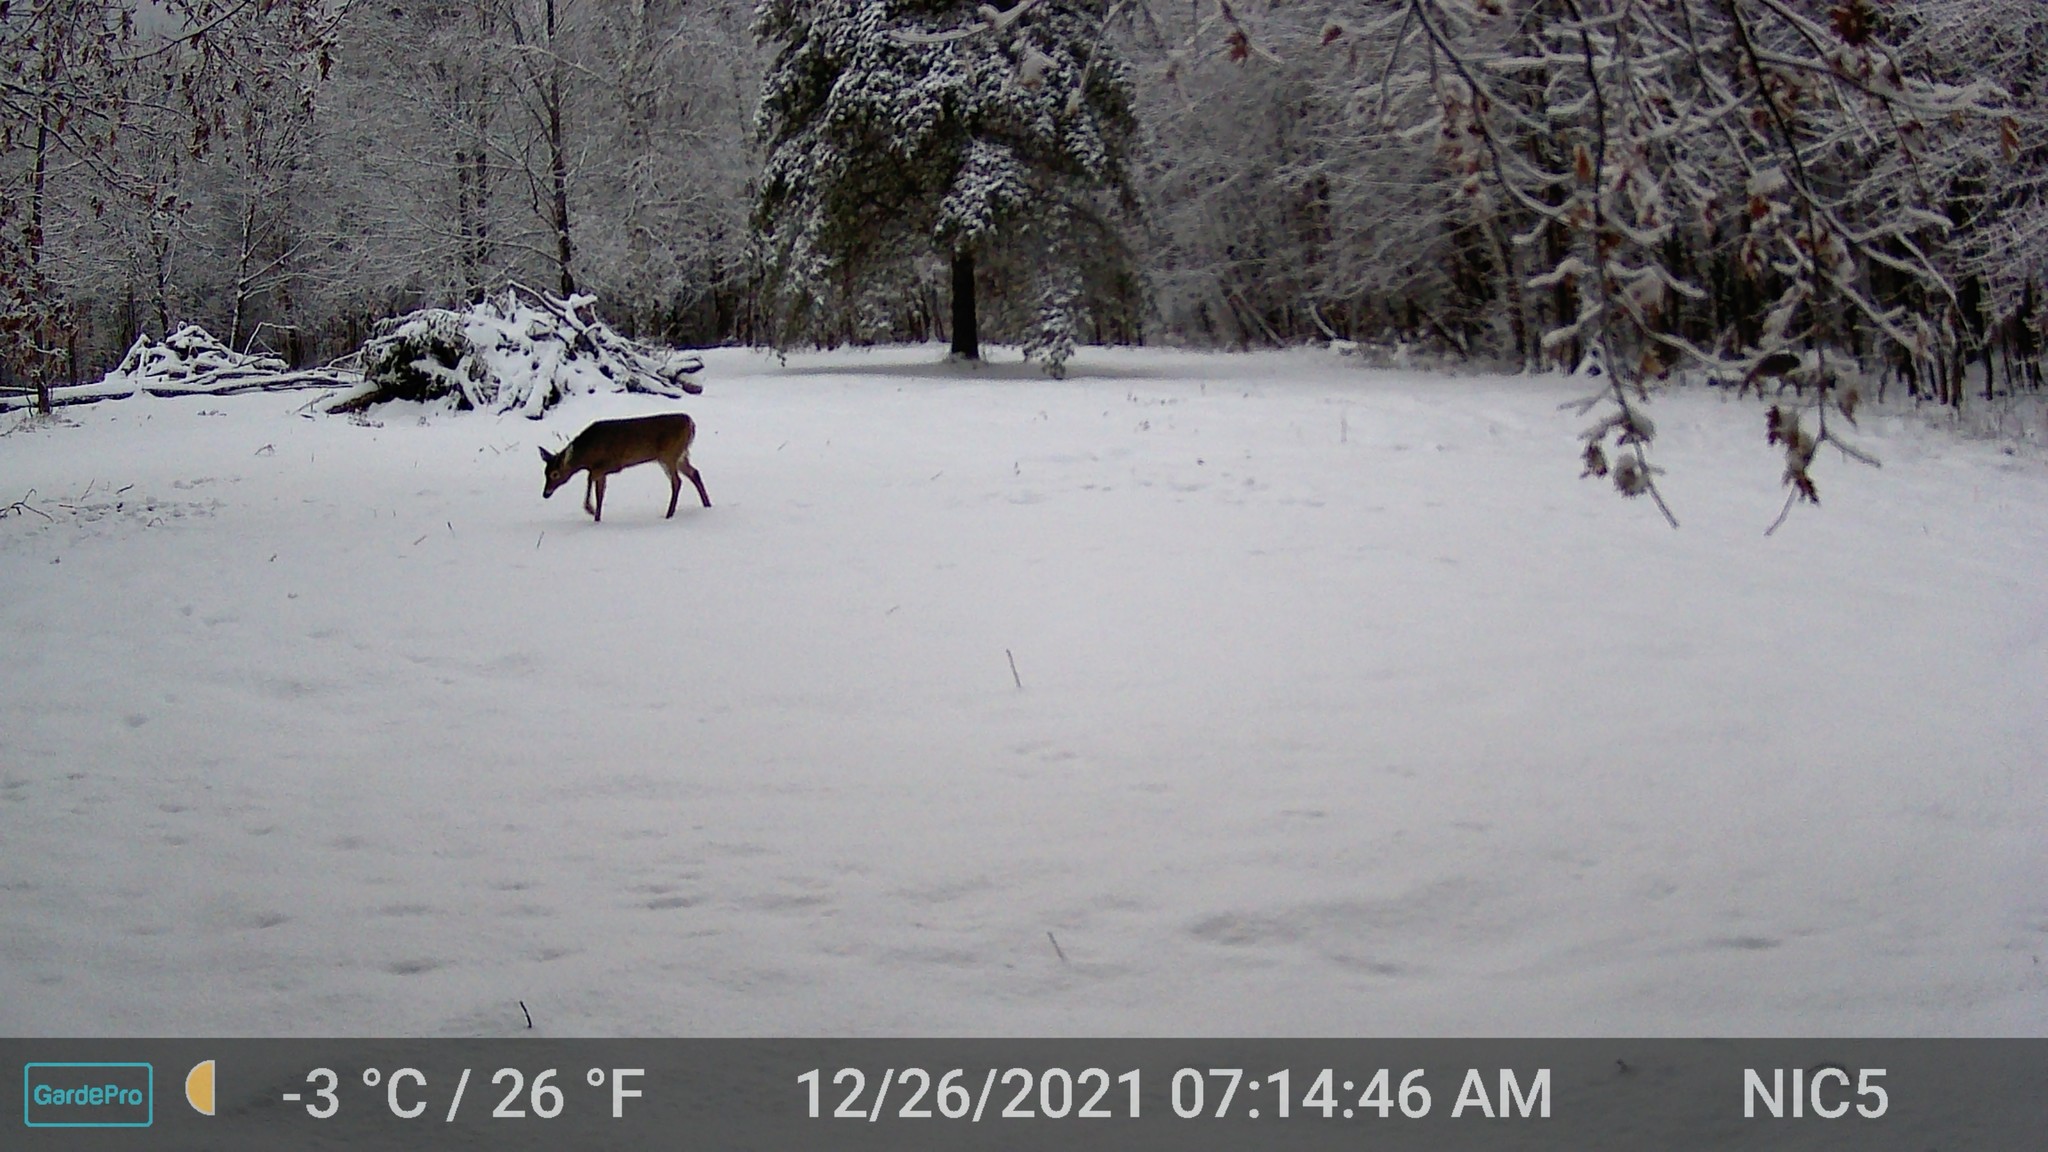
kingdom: Animalia
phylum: Chordata
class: Mammalia
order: Artiodactyla
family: Cervidae
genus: Odocoileus
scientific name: Odocoileus virginianus
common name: White-tailed deer
